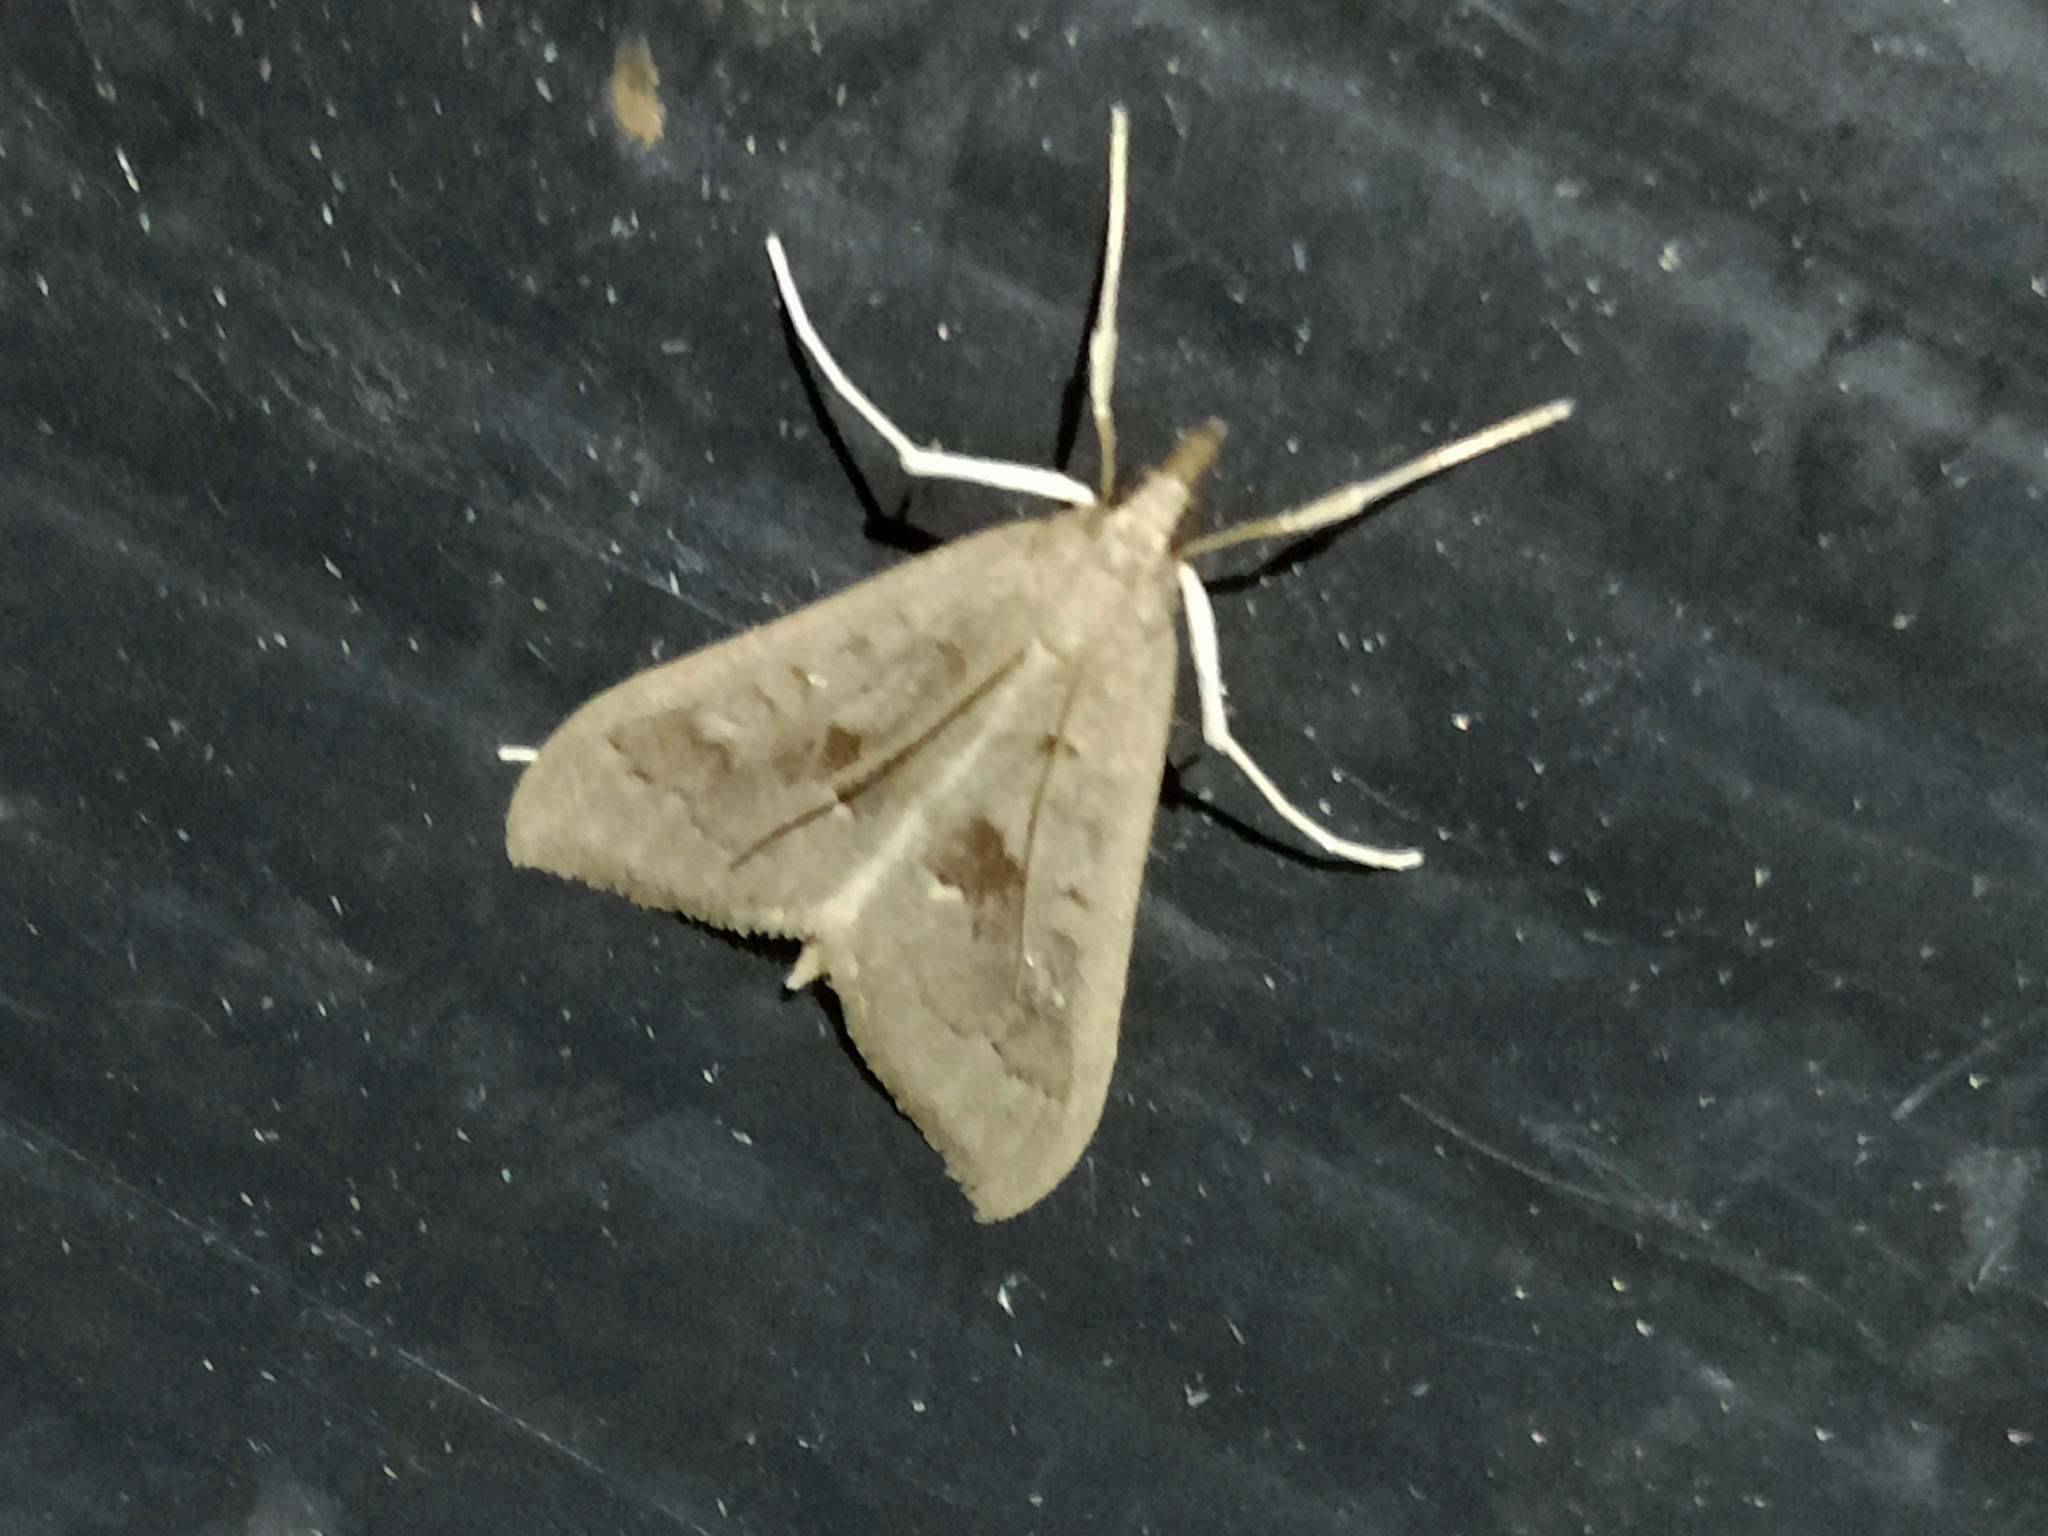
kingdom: Animalia
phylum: Arthropoda
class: Insecta
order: Lepidoptera
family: Crambidae
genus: Mecyna
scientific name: Mecyna asinalis
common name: Coastal pearl
